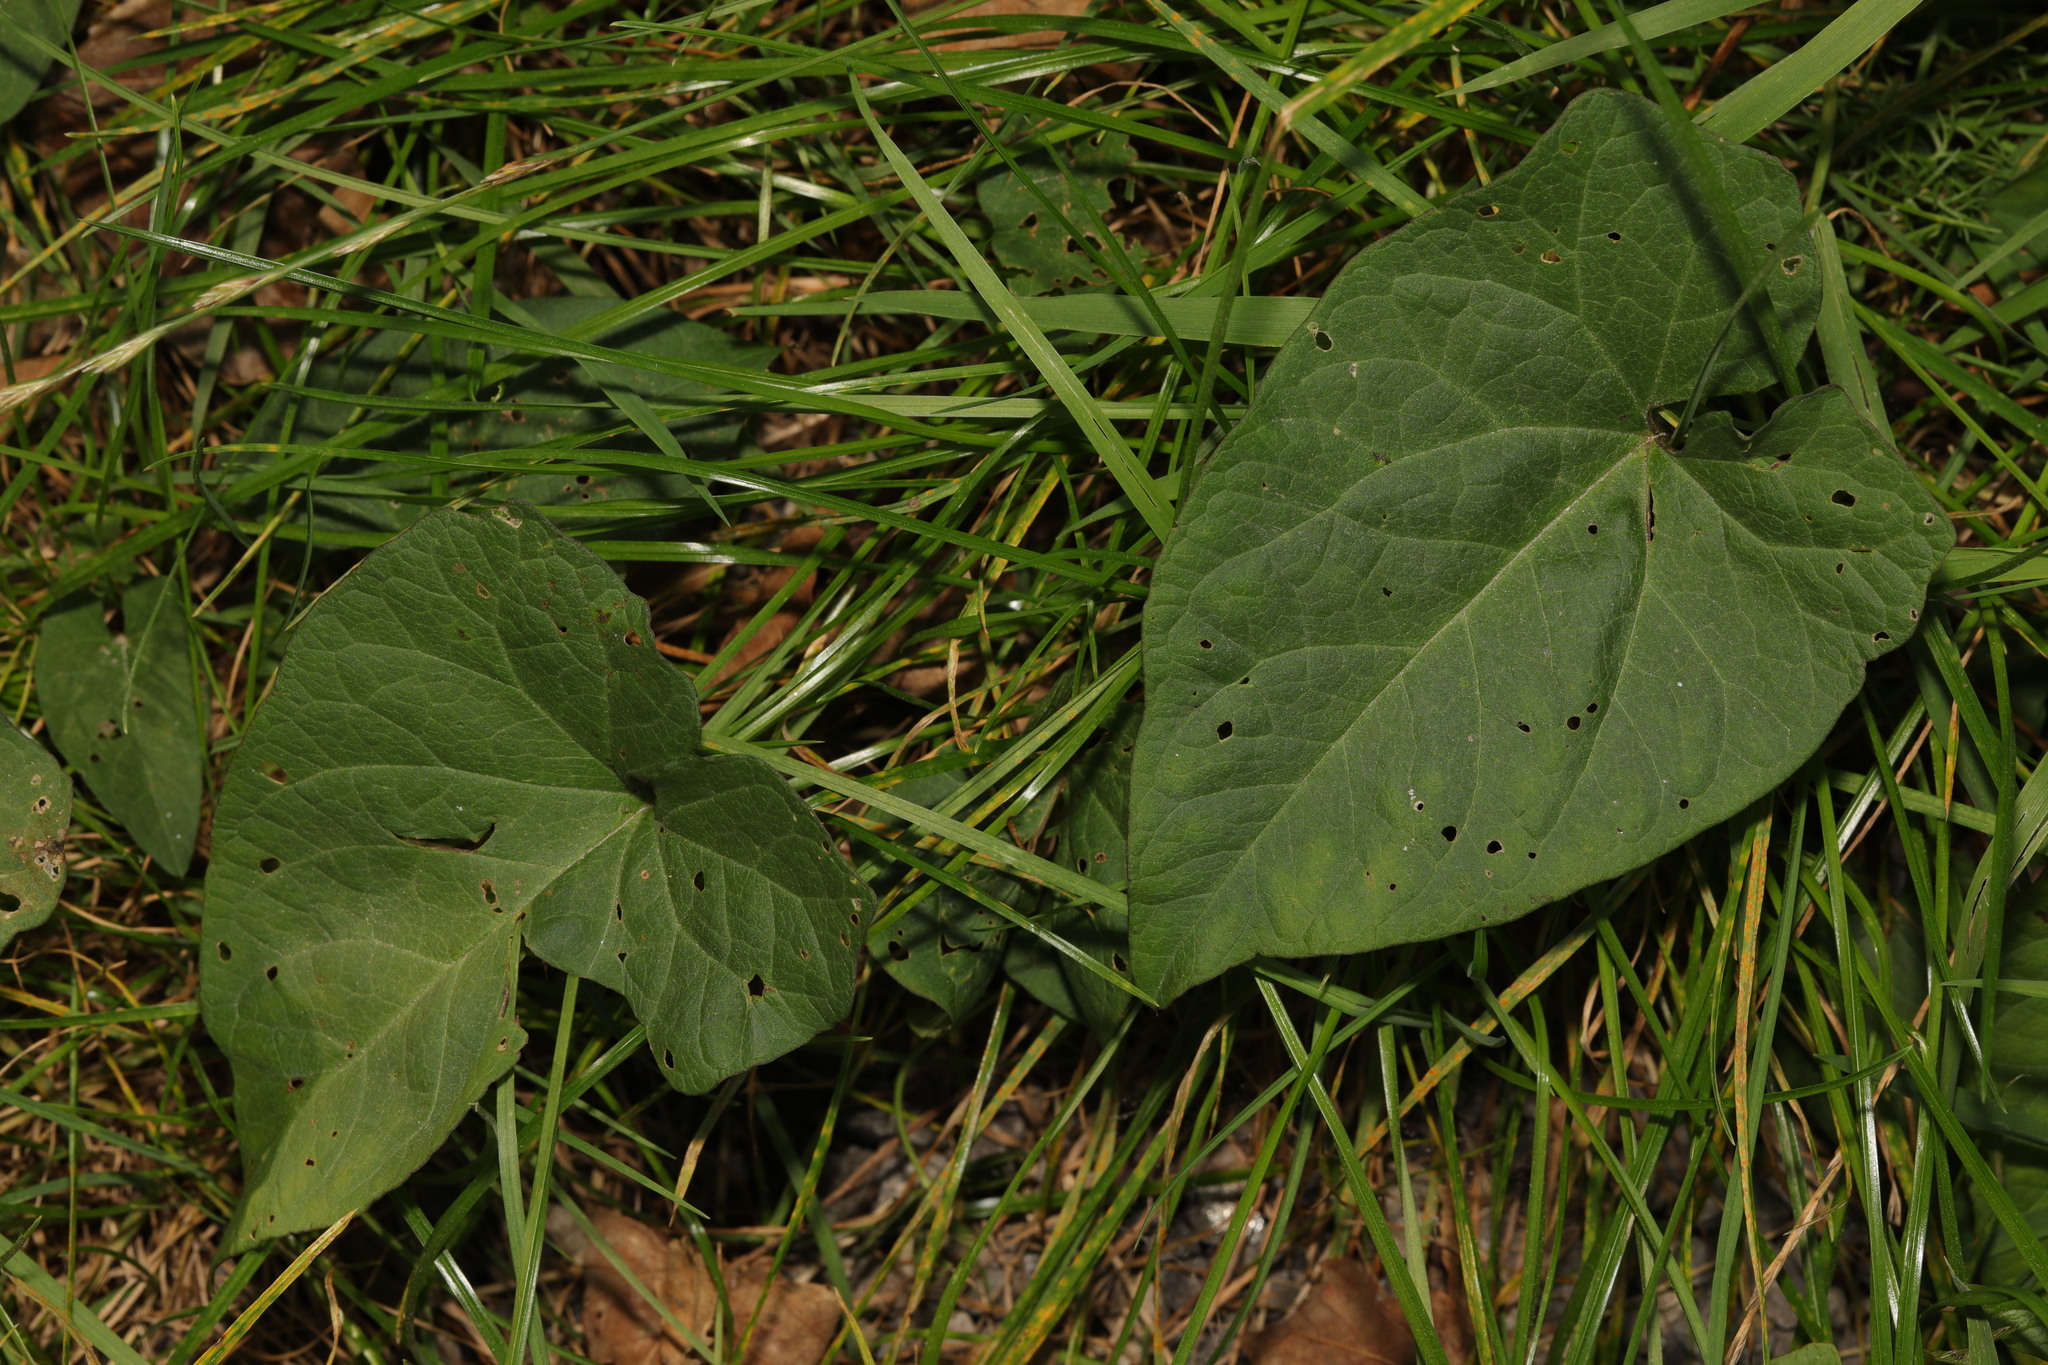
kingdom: Plantae
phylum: Tracheophyta
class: Magnoliopsida
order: Solanales
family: Convolvulaceae
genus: Calystegia
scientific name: Calystegia
